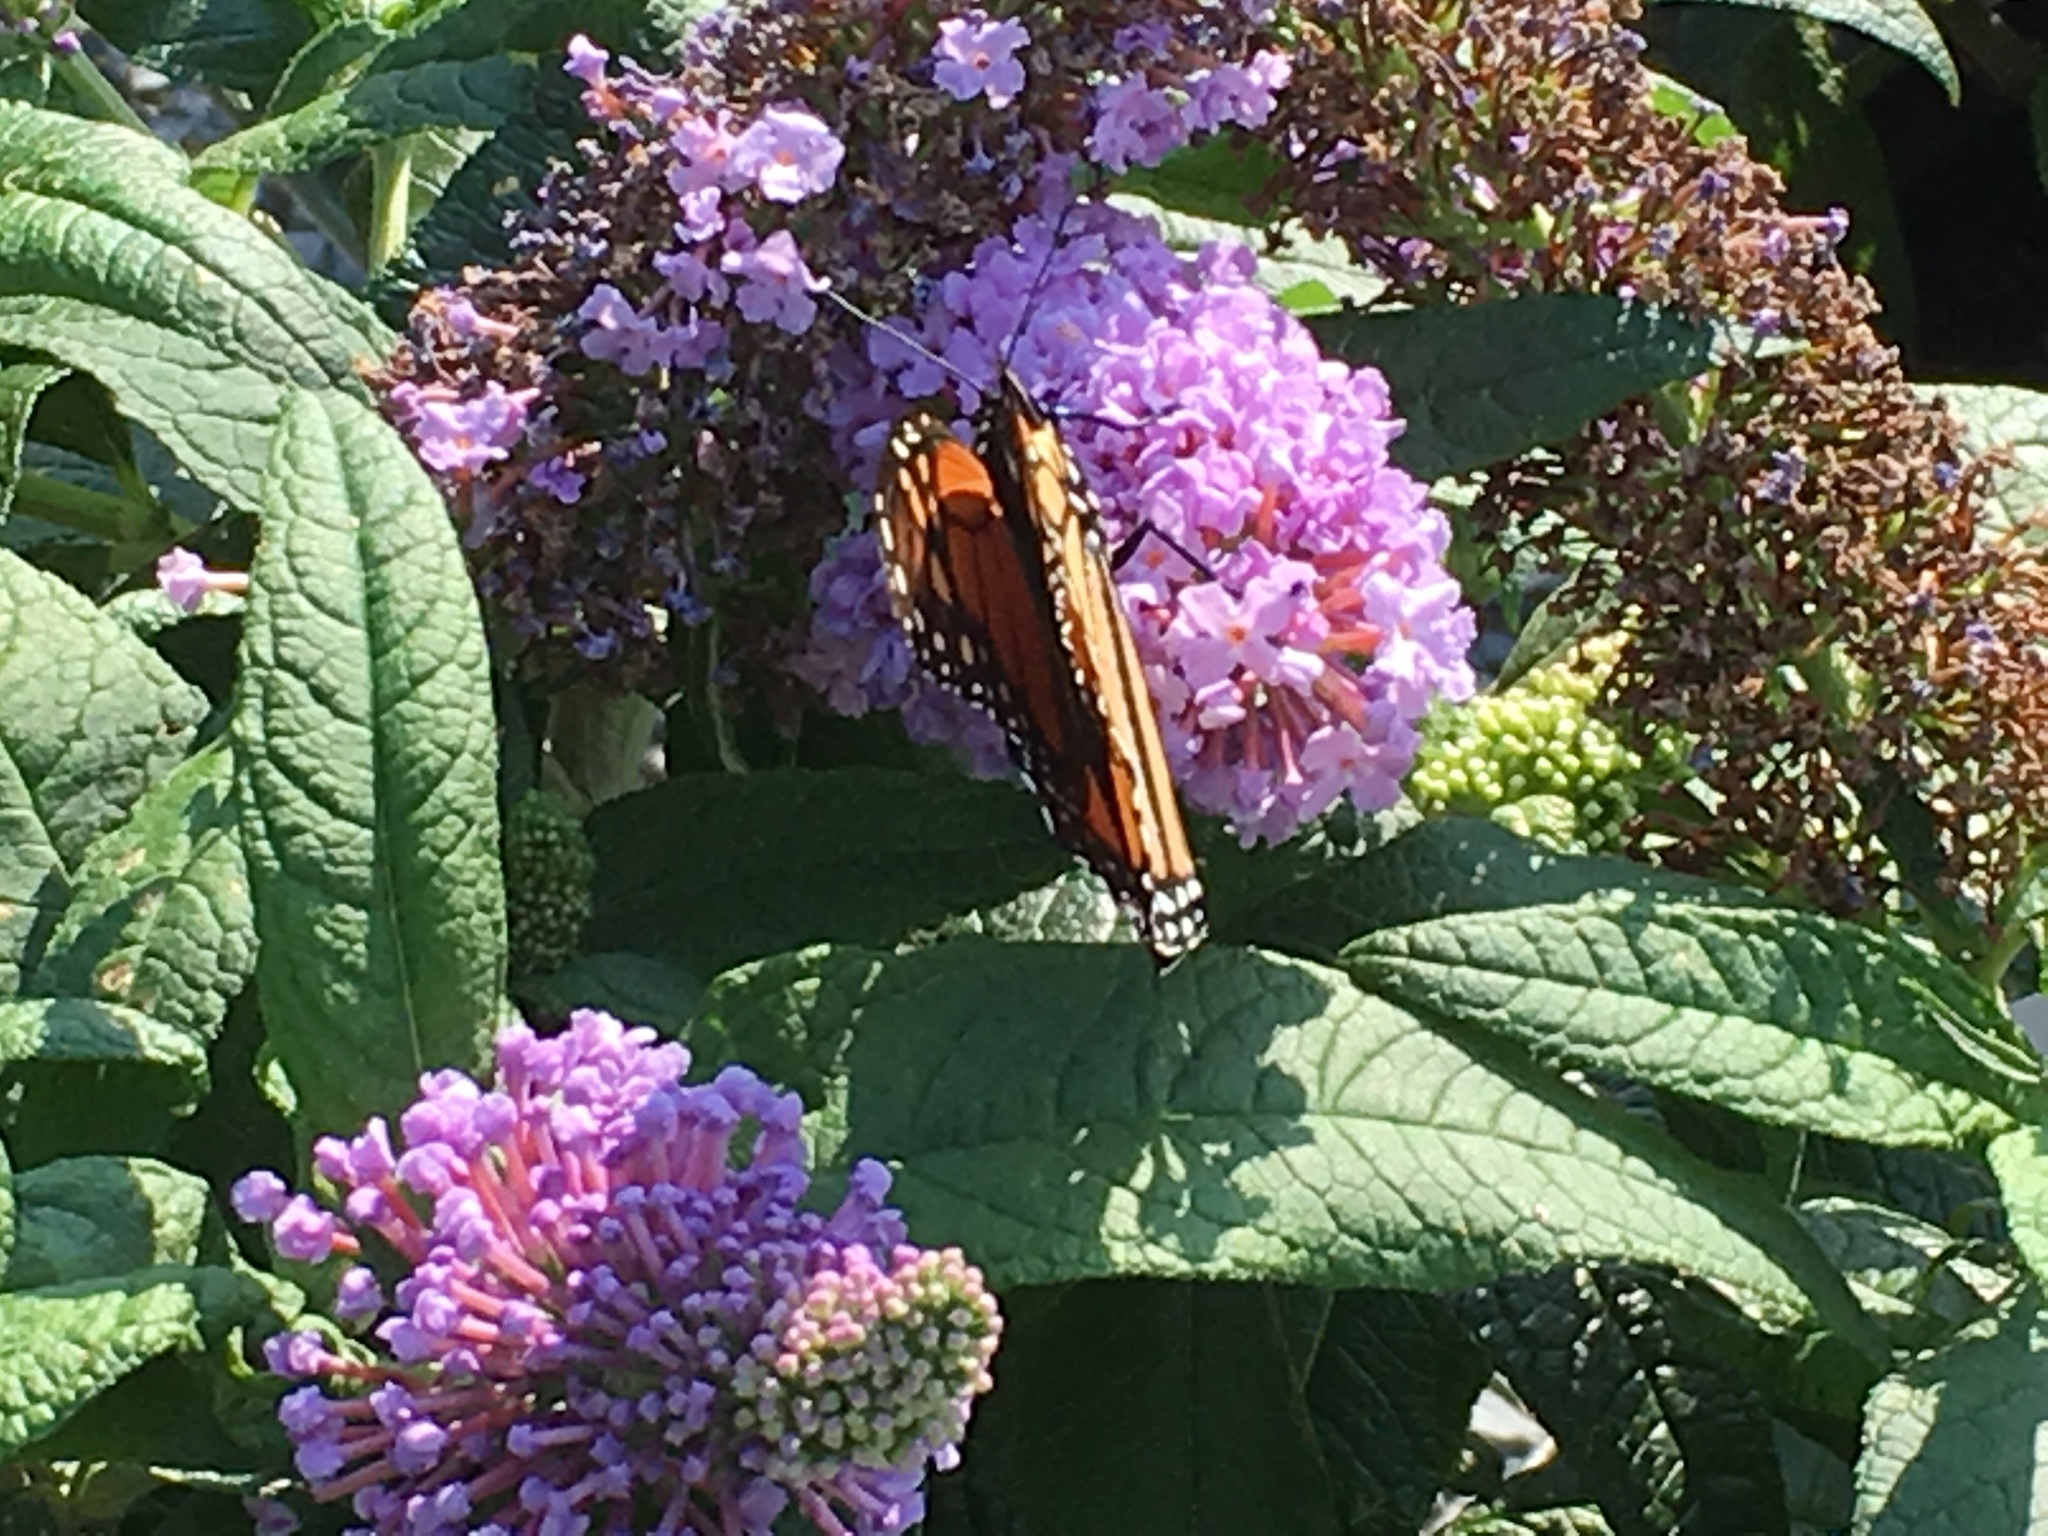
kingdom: Animalia
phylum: Arthropoda
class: Insecta
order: Lepidoptera
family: Nymphalidae
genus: Danaus
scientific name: Danaus plexippus
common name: Monarch
